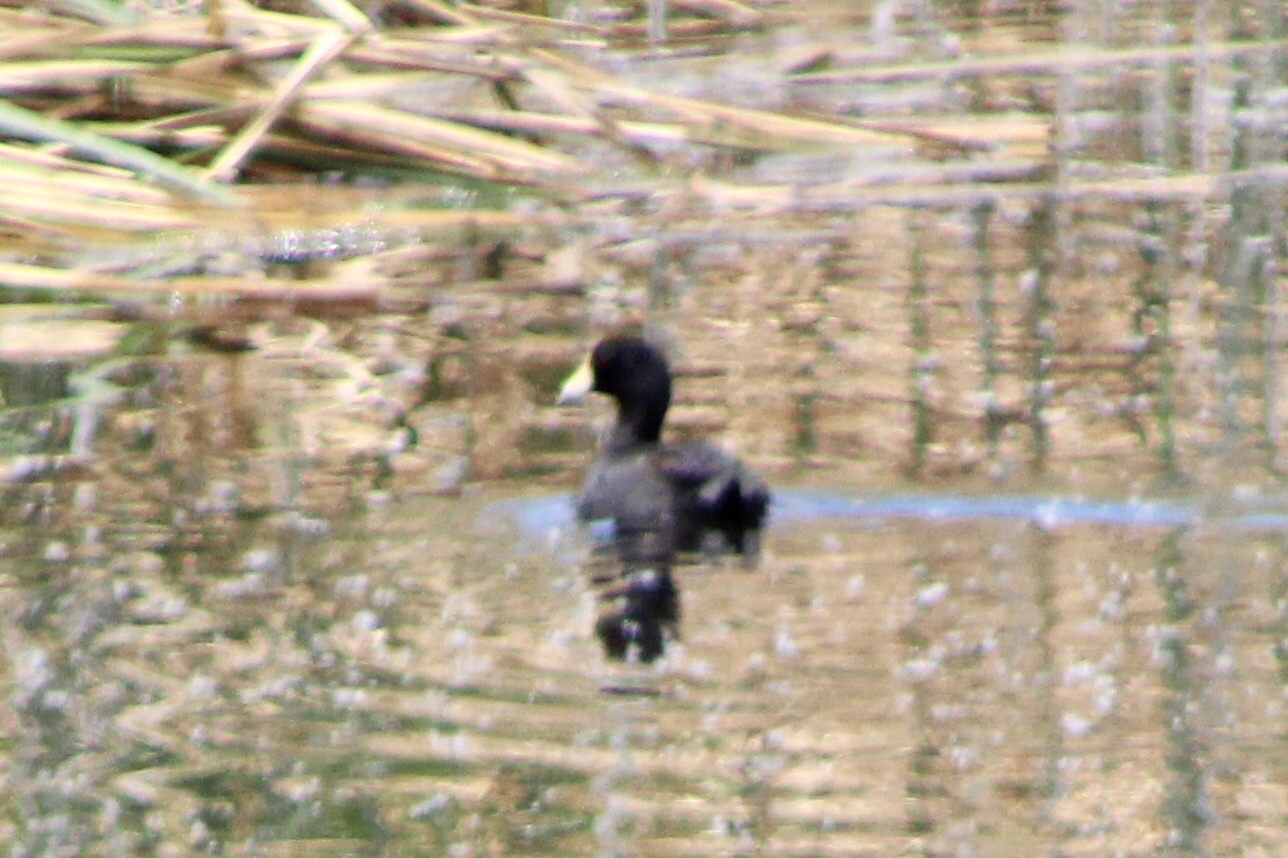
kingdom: Animalia
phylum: Chordata
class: Aves
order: Gruiformes
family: Rallidae
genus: Fulica
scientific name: Fulica americana
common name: American coot
